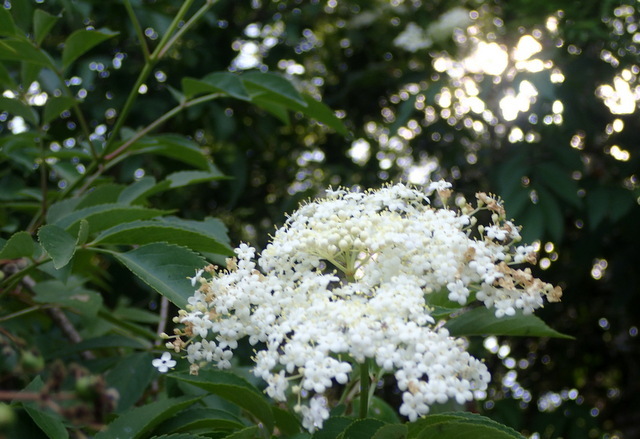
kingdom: Plantae
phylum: Tracheophyta
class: Magnoliopsida
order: Dipsacales
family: Viburnaceae
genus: Sambucus
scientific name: Sambucus canadensis
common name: American elder
